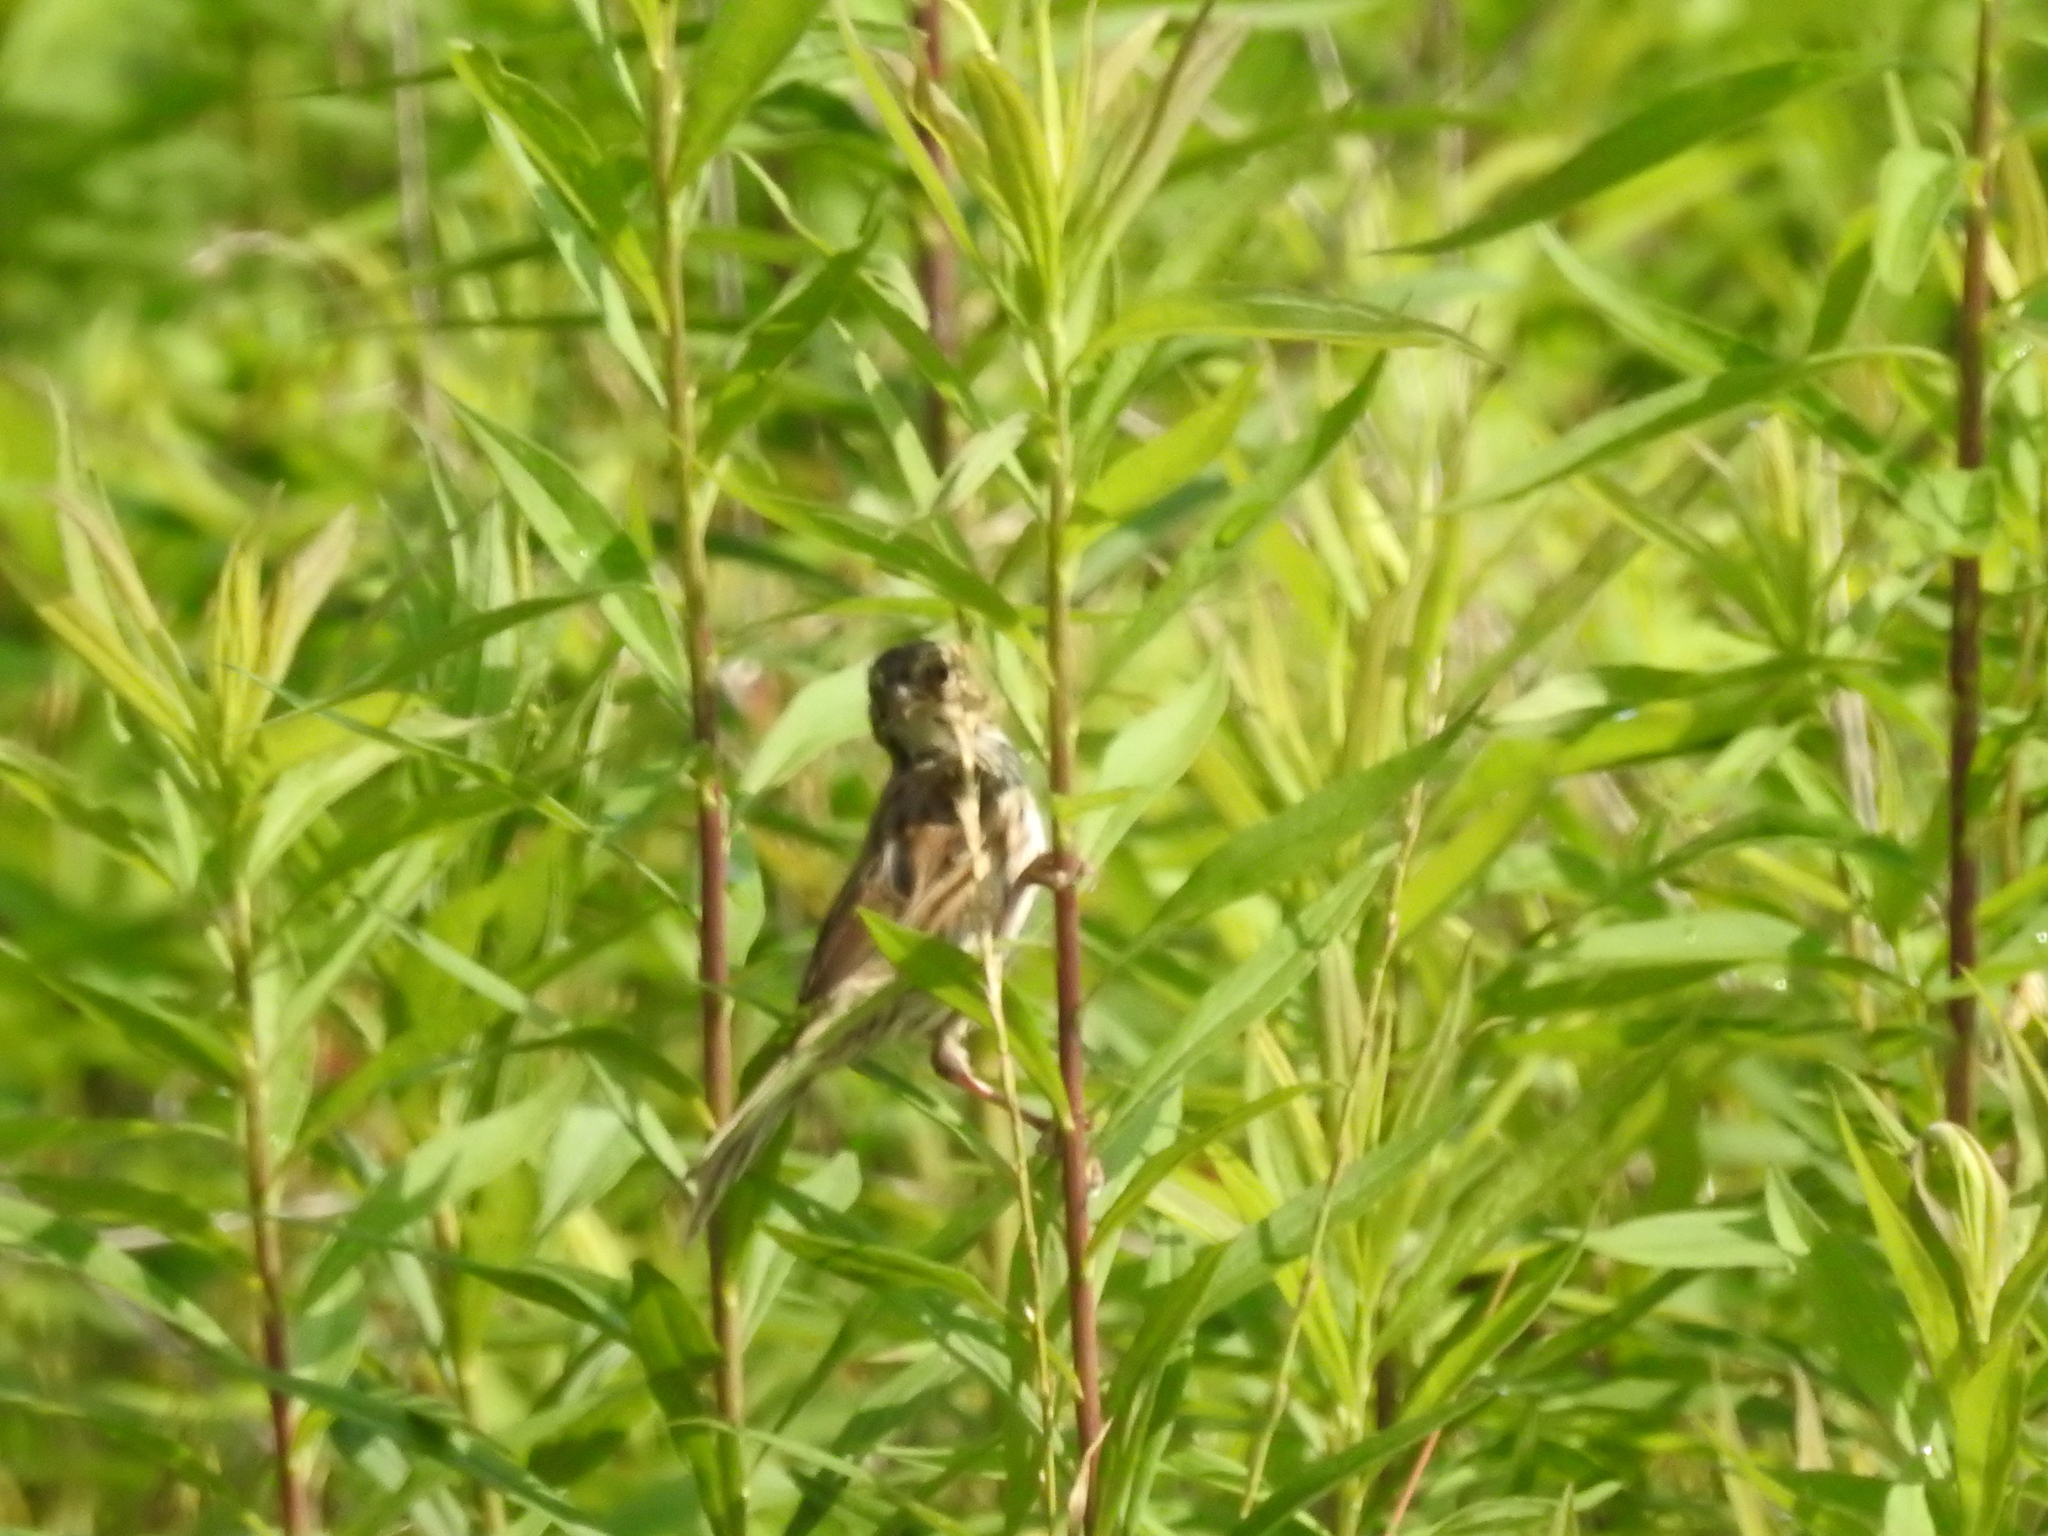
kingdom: Animalia
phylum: Chordata
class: Aves
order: Passeriformes
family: Passerellidae
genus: Melospiza
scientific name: Melospiza melodia
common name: Song sparrow
